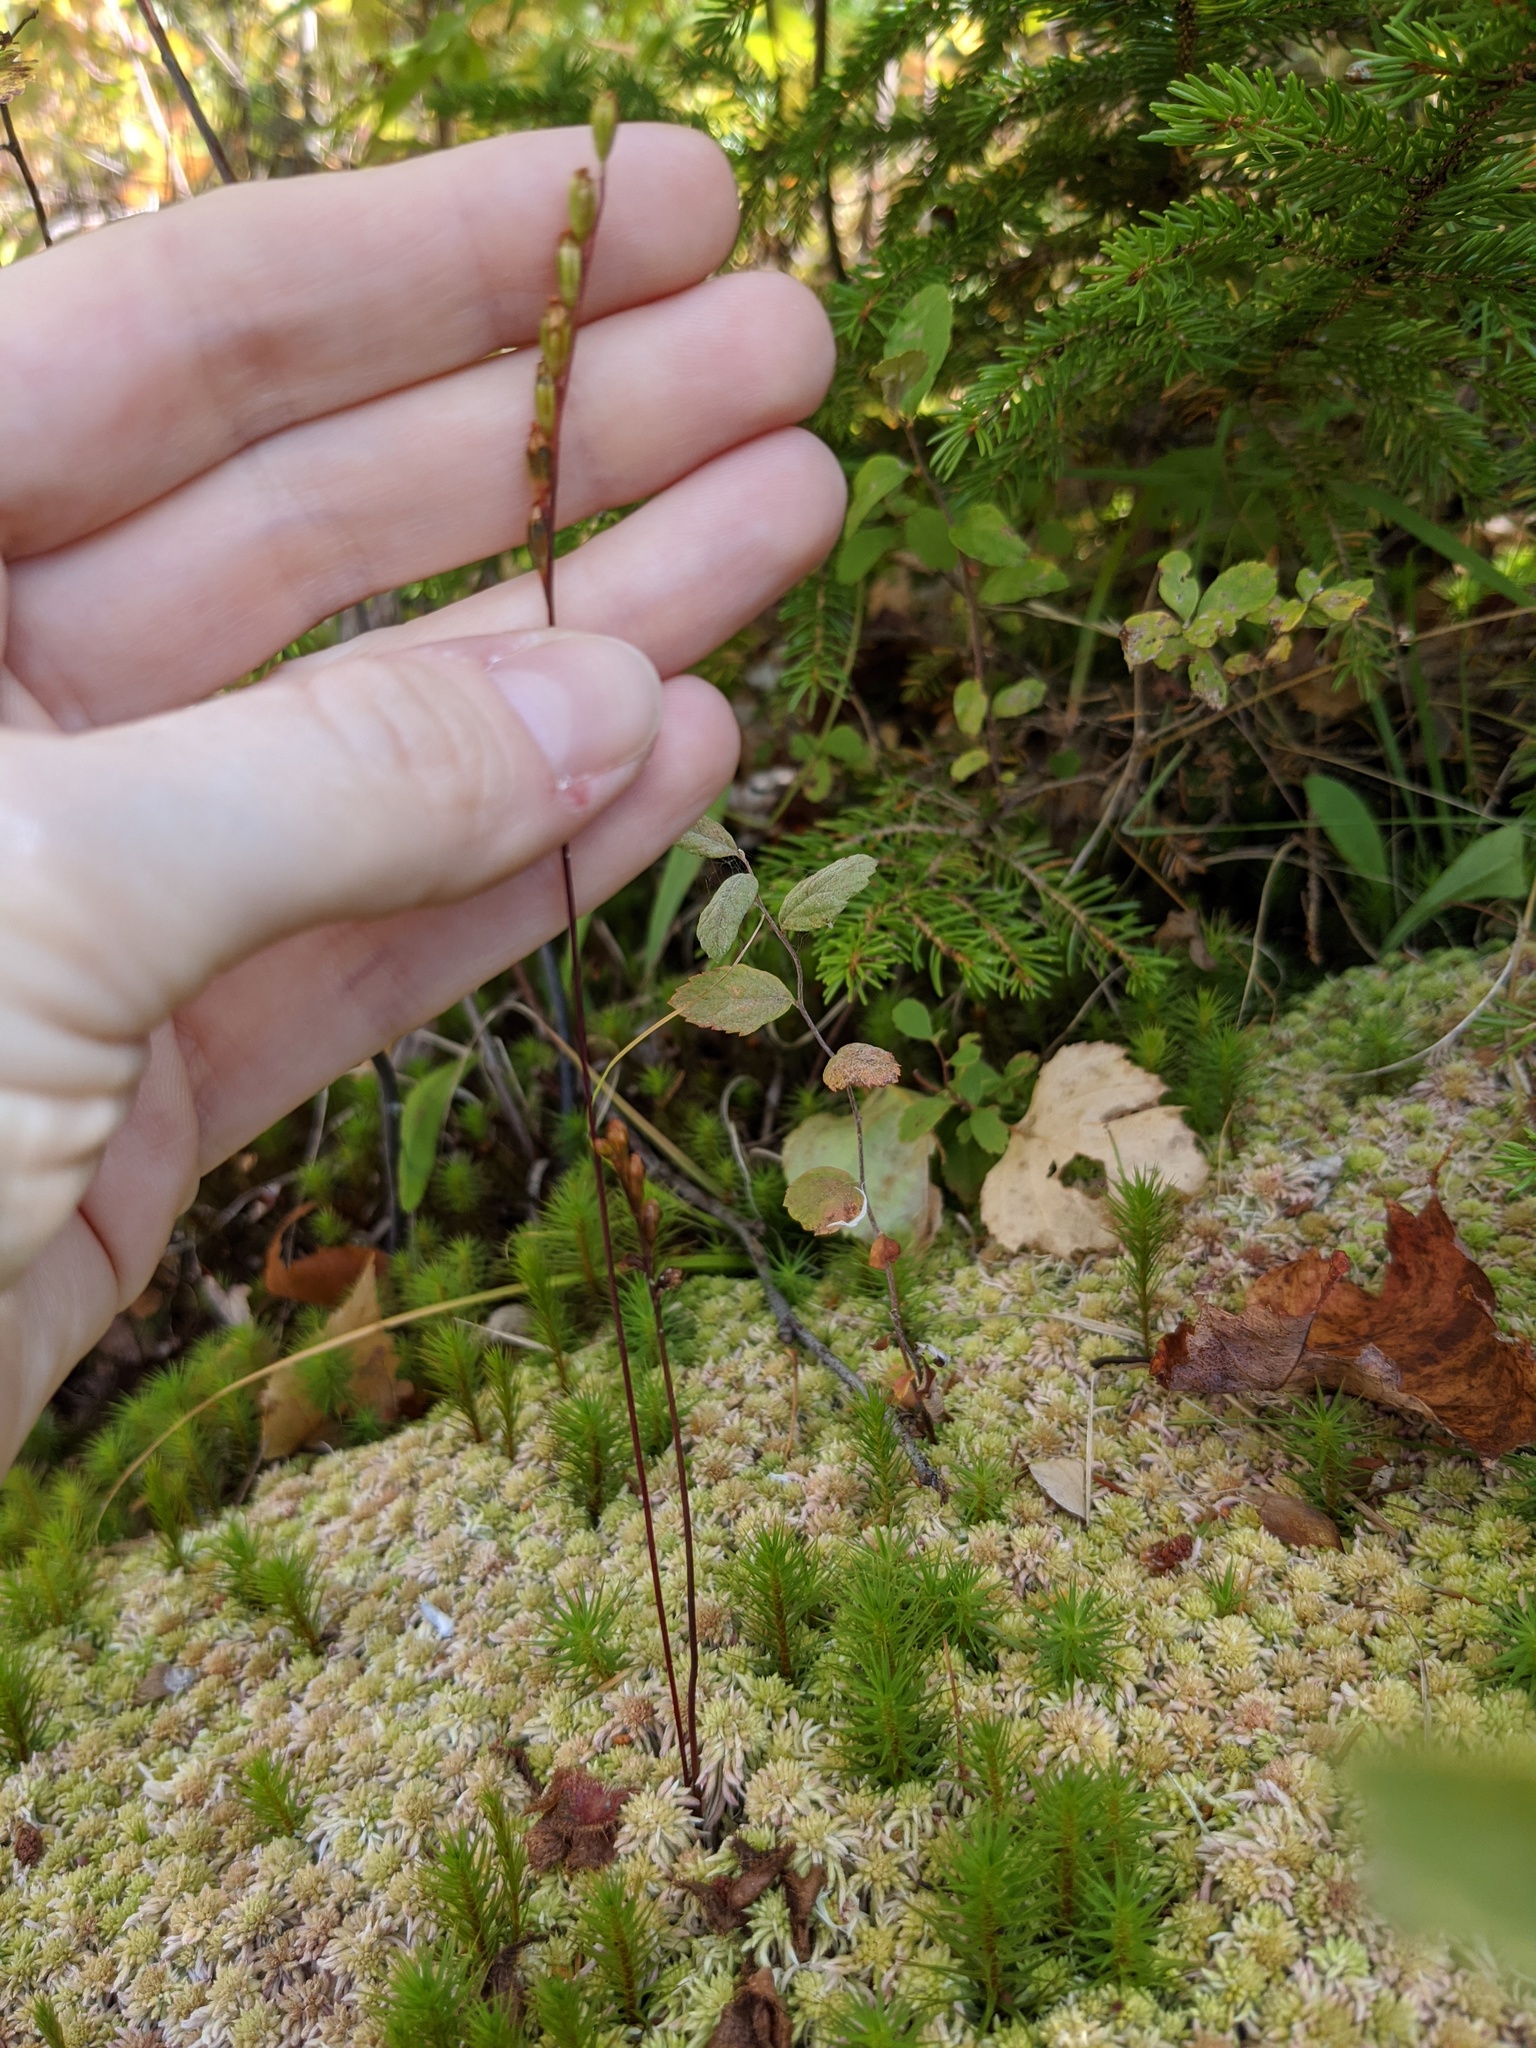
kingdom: Plantae
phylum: Tracheophyta
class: Magnoliopsida
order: Caryophyllales
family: Droseraceae
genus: Drosera
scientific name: Drosera rotundifolia
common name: Round-leaved sundew
